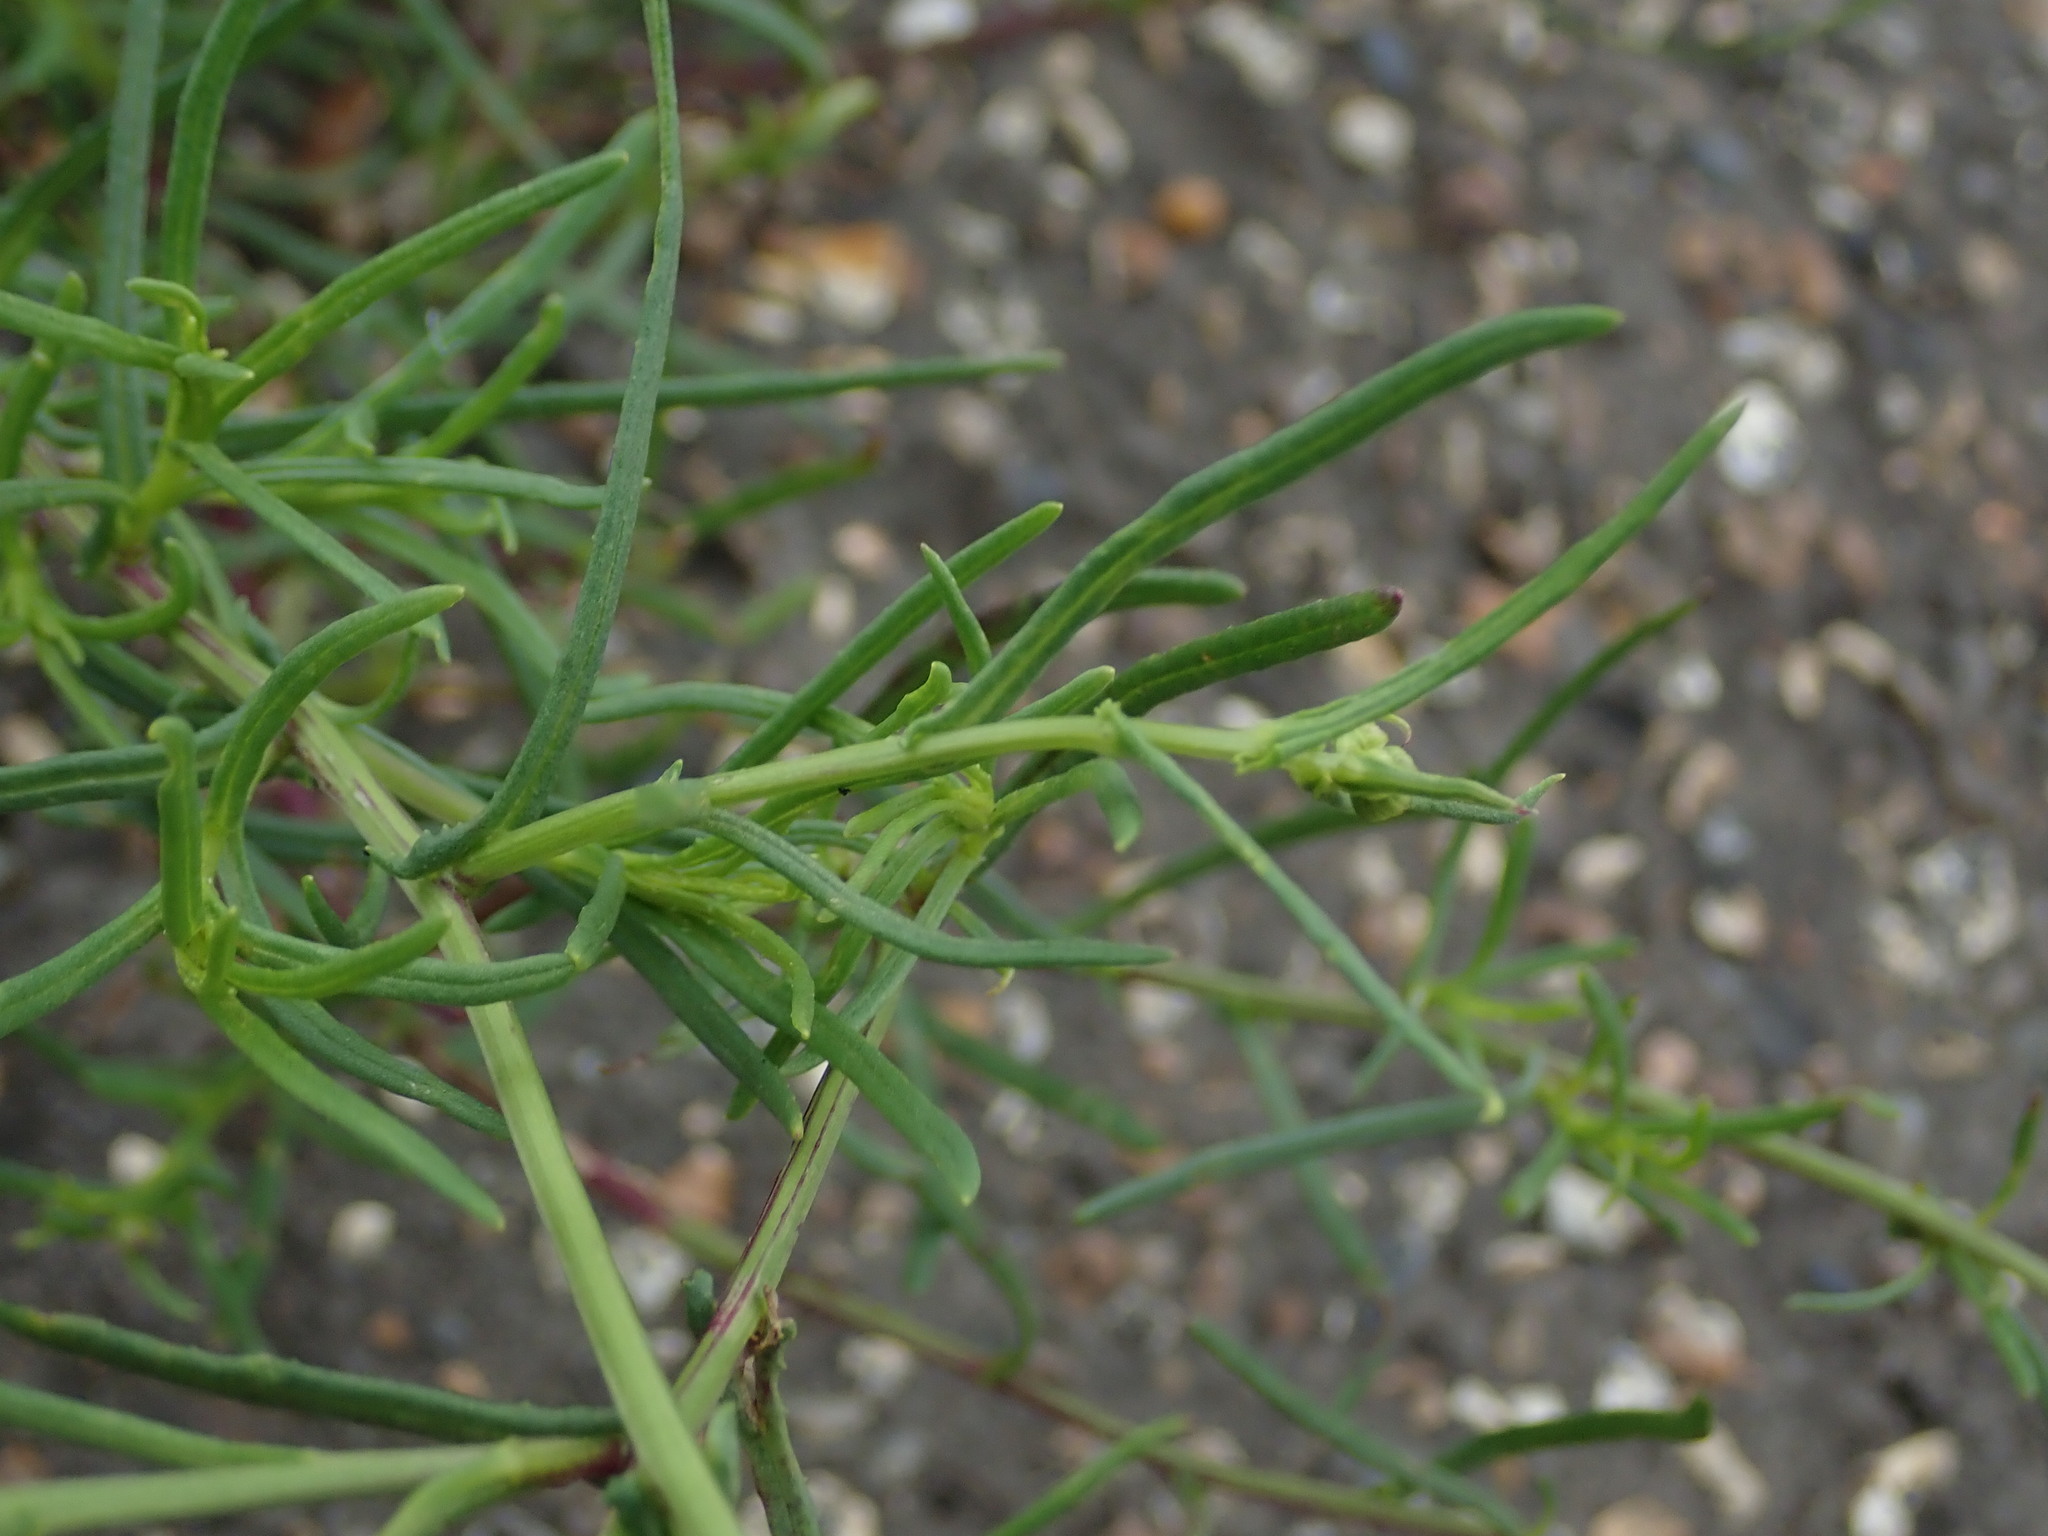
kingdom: Plantae
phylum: Tracheophyta
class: Magnoliopsida
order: Asterales
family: Asteraceae
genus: Senecio
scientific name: Senecio inaequidens
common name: Narrow-leaved ragwort
